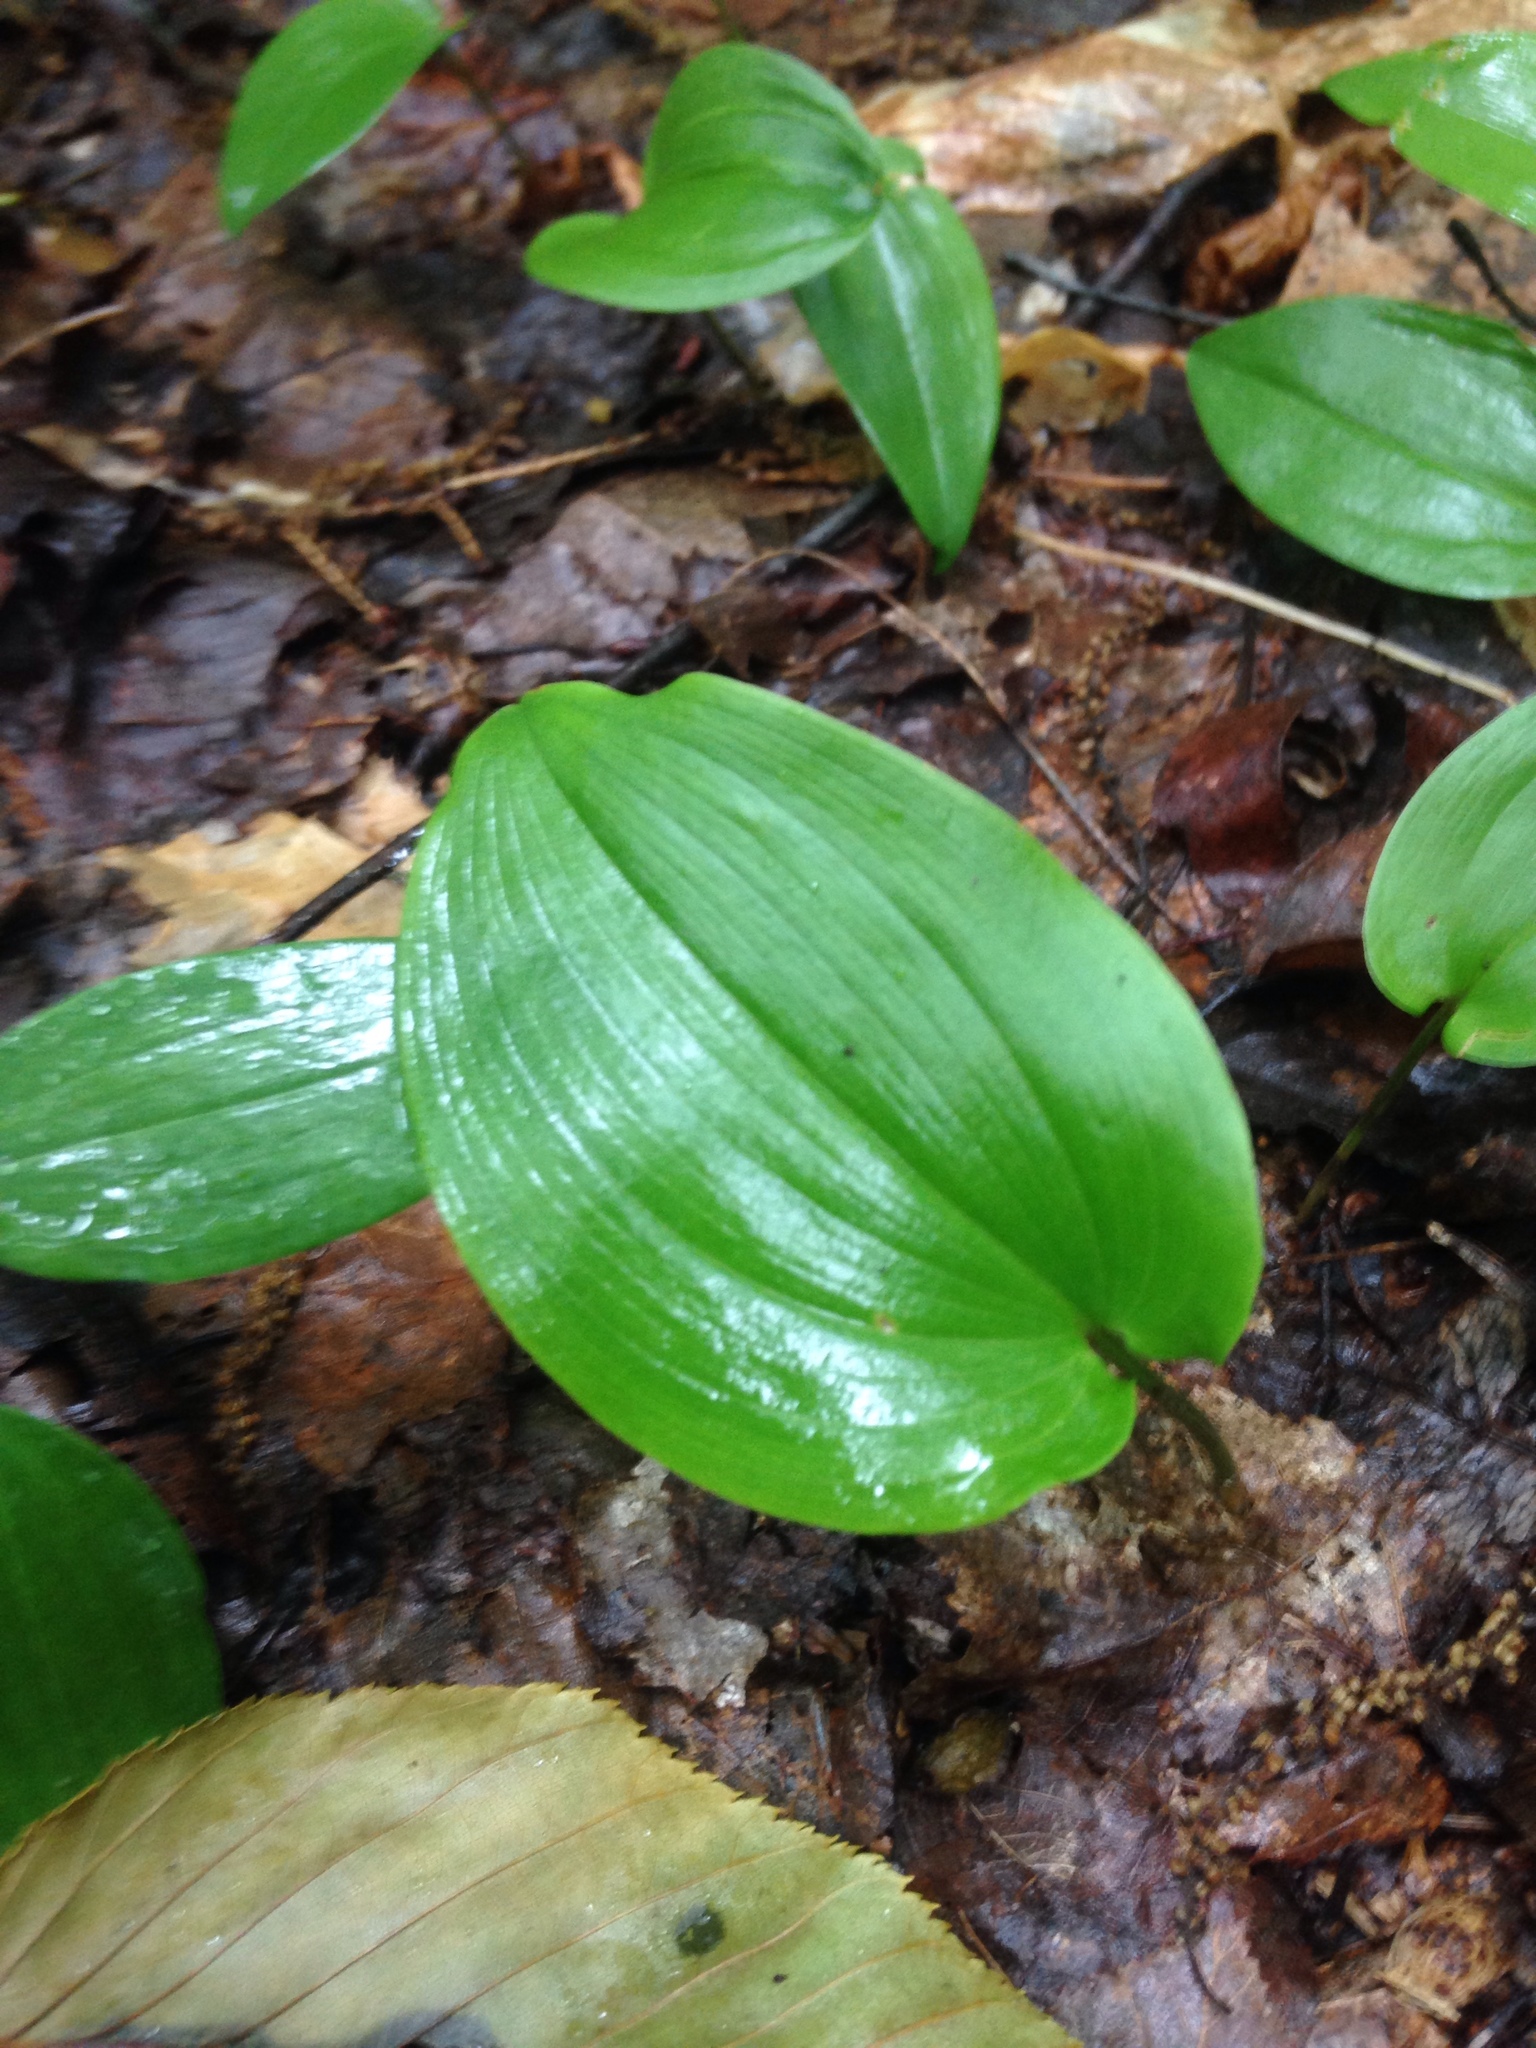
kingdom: Plantae
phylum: Tracheophyta
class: Liliopsida
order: Asparagales
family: Asparagaceae
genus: Maianthemum
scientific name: Maianthemum canadense
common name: False lily-of-the-valley
